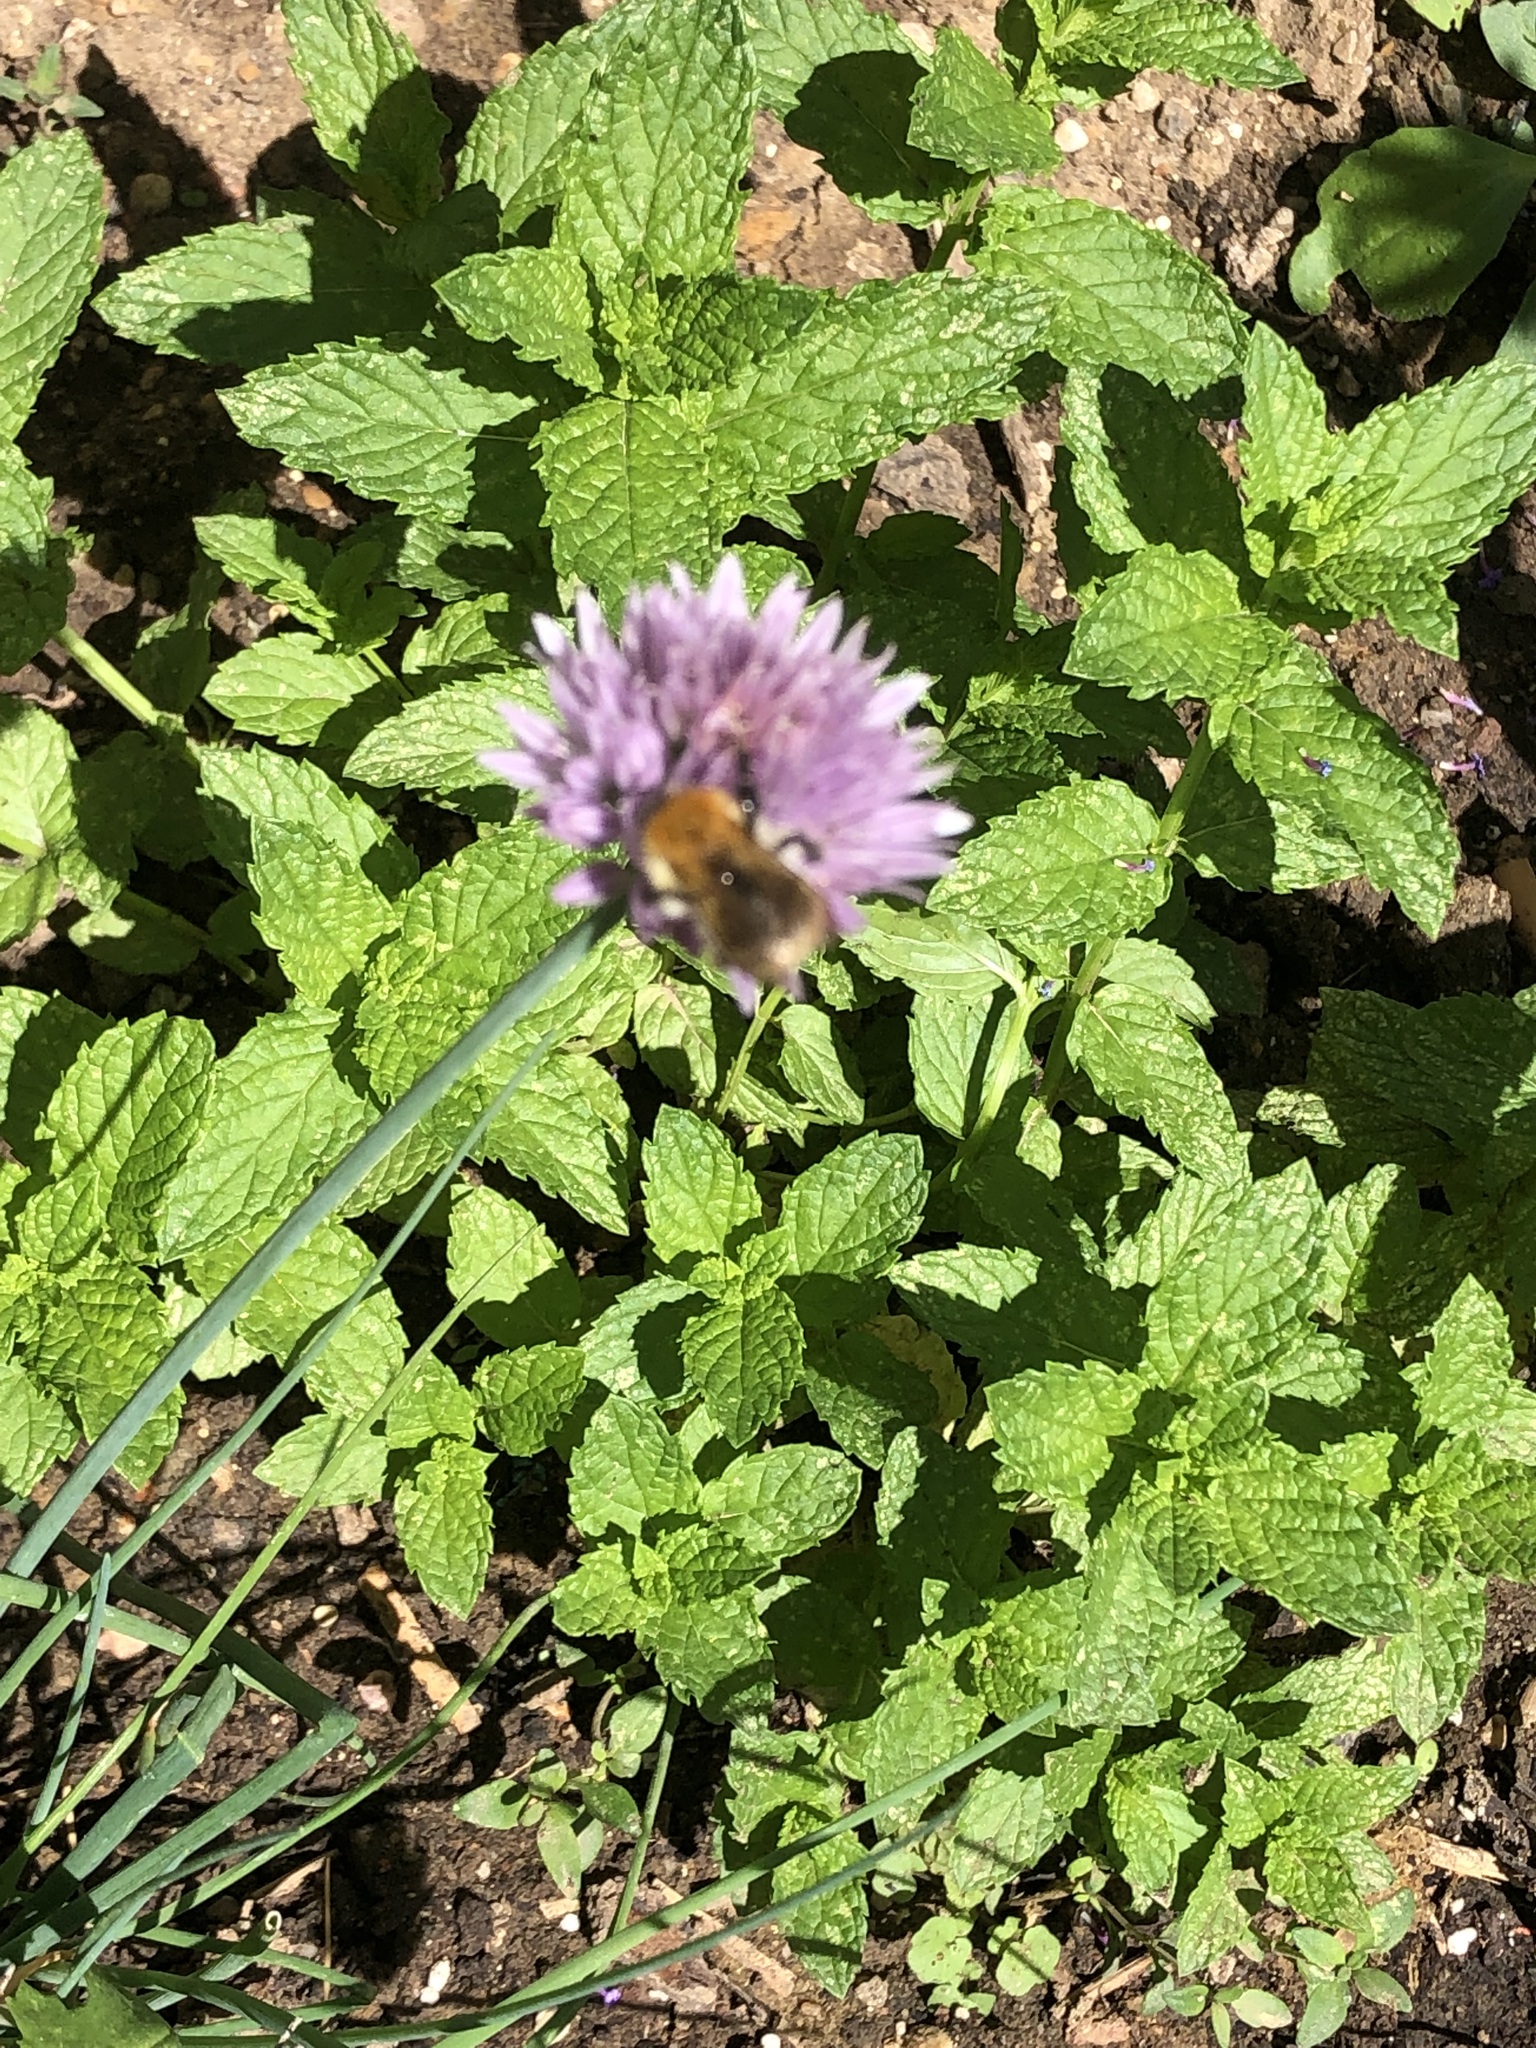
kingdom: Animalia
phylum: Arthropoda
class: Insecta
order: Hymenoptera
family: Apidae
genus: Bombus
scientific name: Bombus pascuorum
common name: Common carder bee
